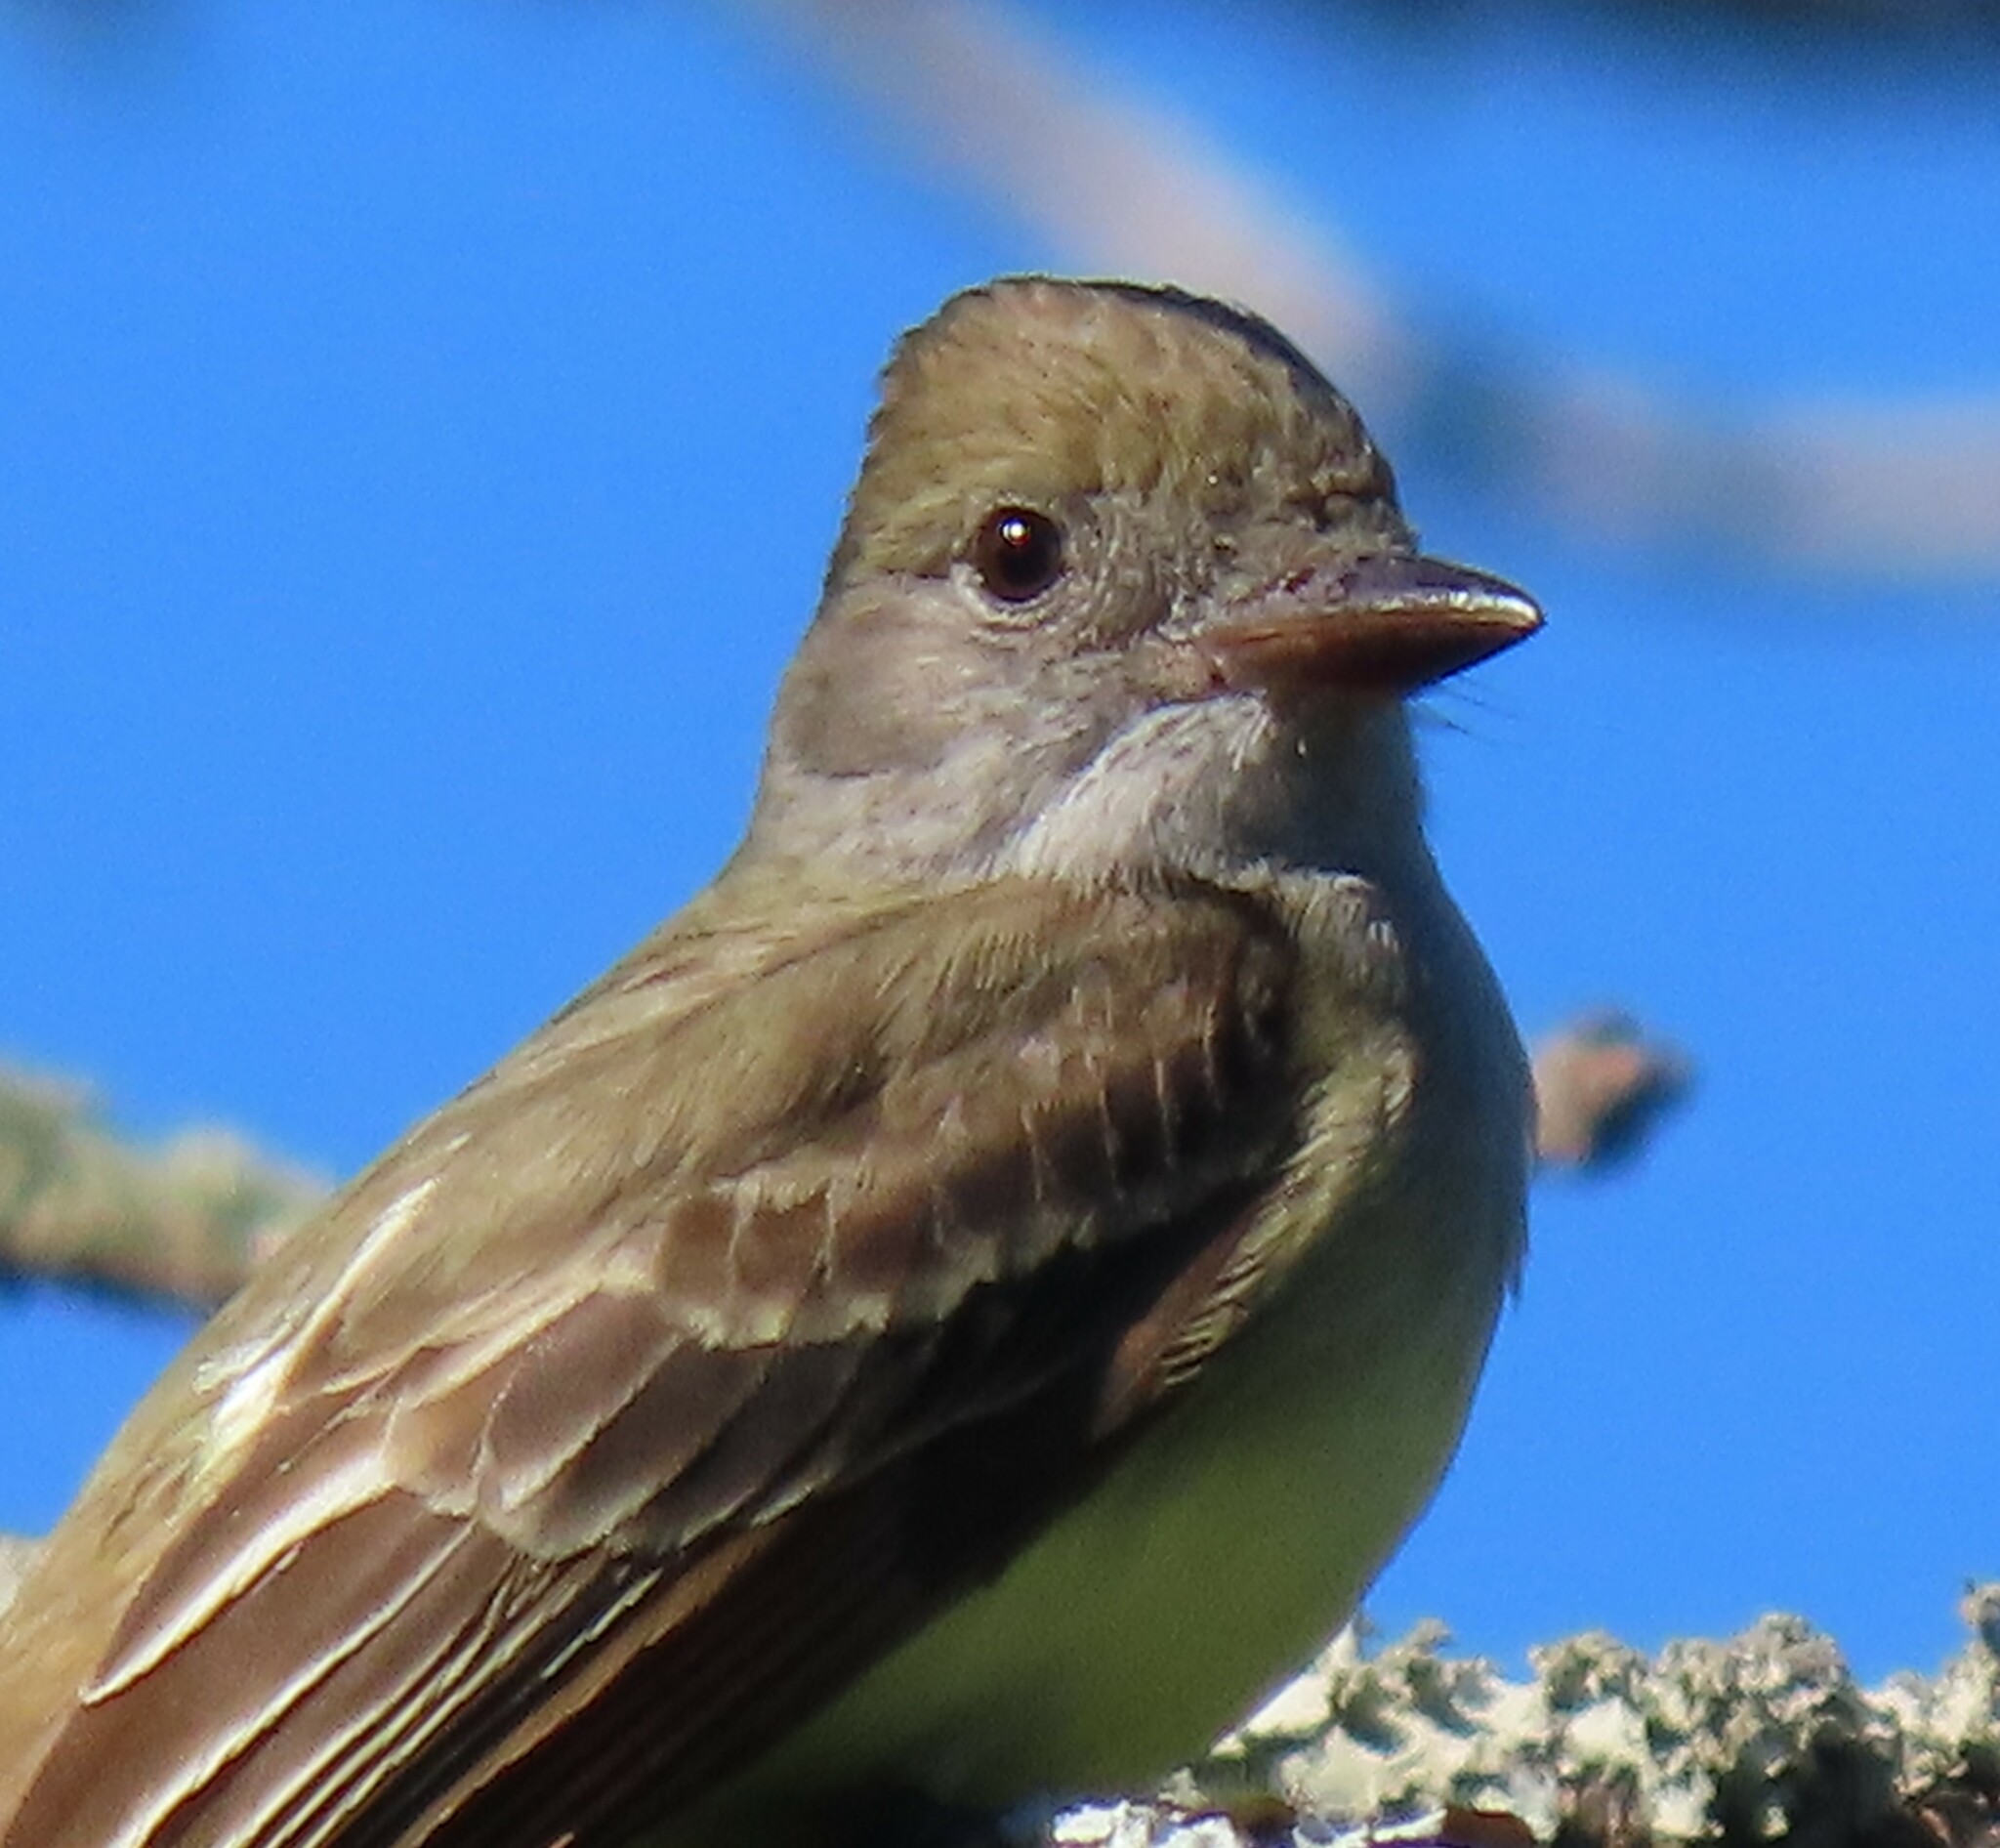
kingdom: Animalia
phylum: Chordata
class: Aves
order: Passeriformes
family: Tyrannidae
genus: Myiarchus
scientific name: Myiarchus crinitus
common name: Great crested flycatcher
